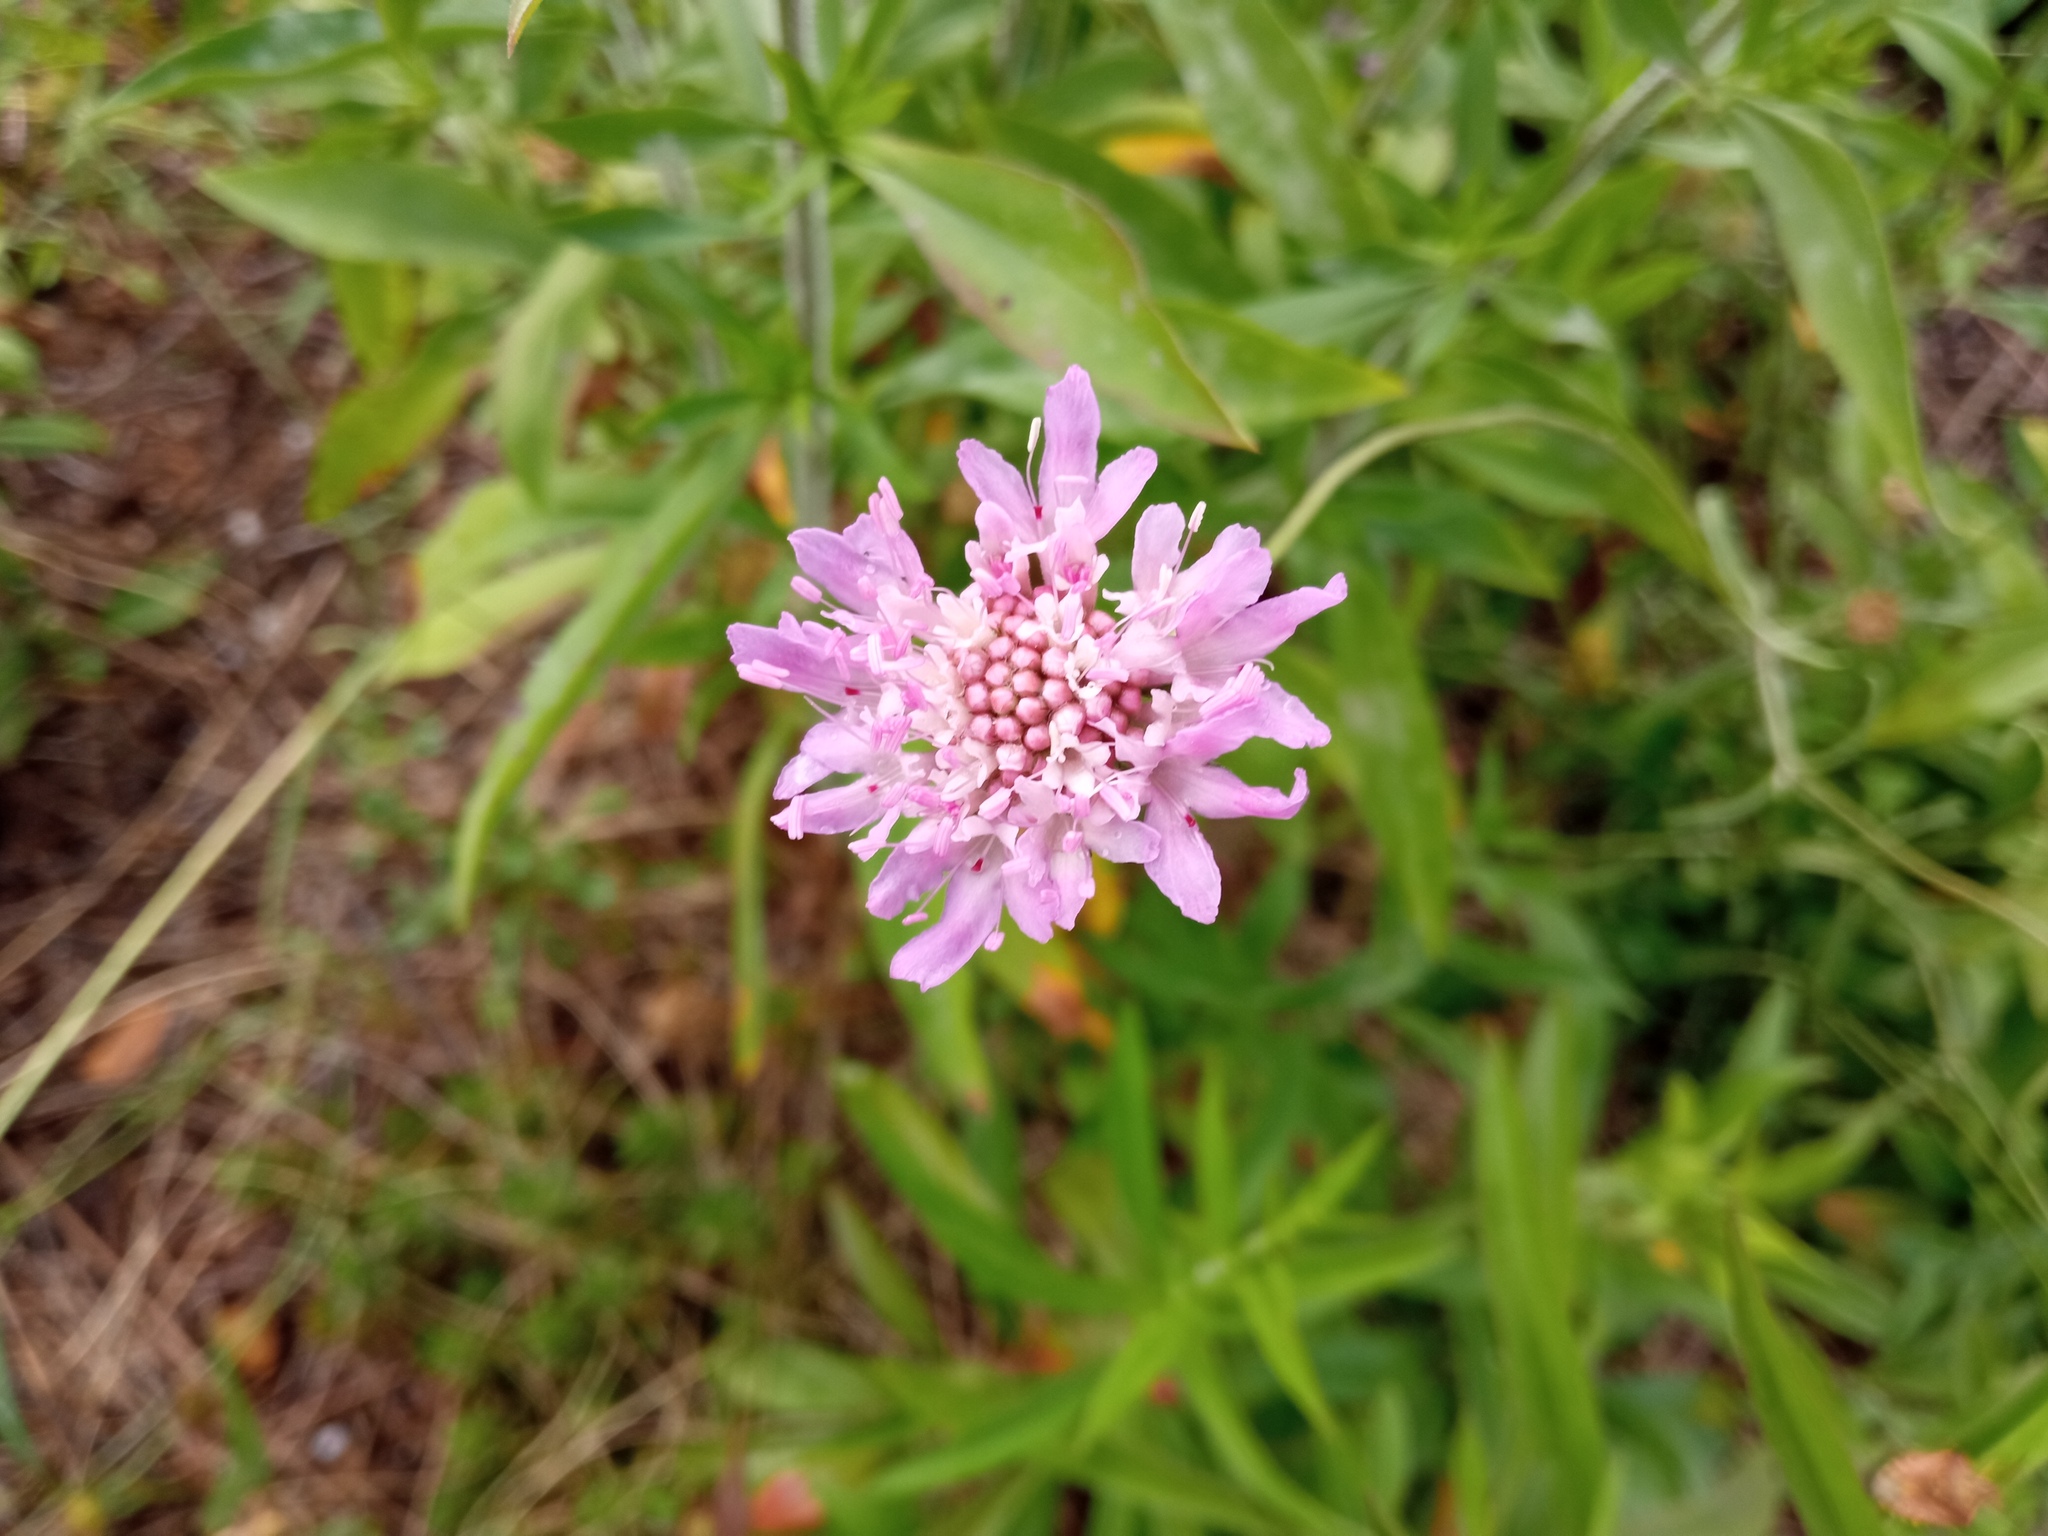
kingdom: Plantae
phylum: Tracheophyta
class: Magnoliopsida
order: Dipsacales
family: Caprifoliaceae
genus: Sixalix
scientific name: Sixalix atropurpurea
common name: Sweet scabious
